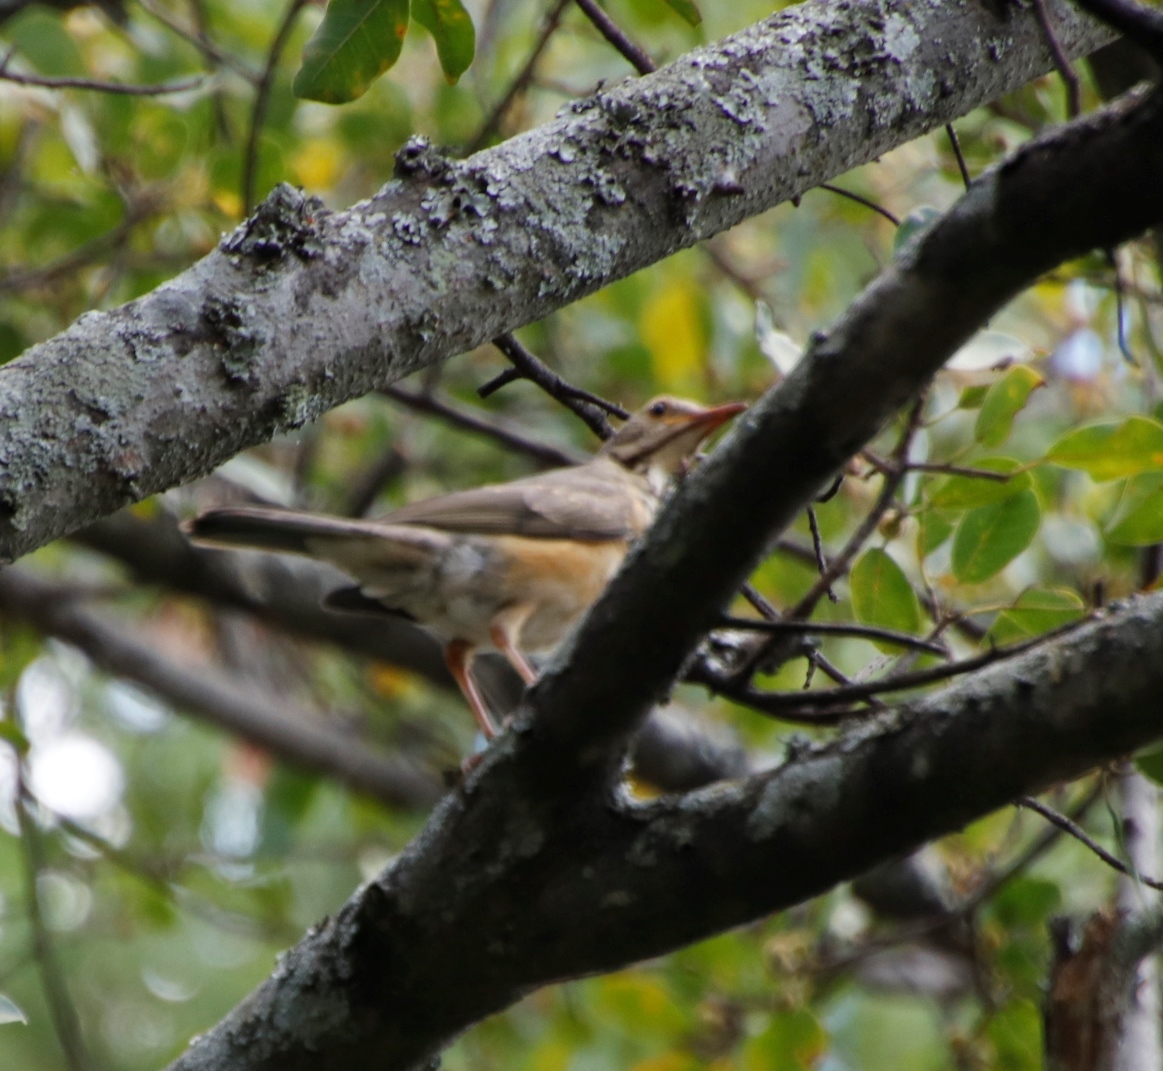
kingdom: Animalia
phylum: Chordata
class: Aves
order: Passeriformes
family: Turdidae
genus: Turdus
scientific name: Turdus libonyana
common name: Kurrichane thrush
